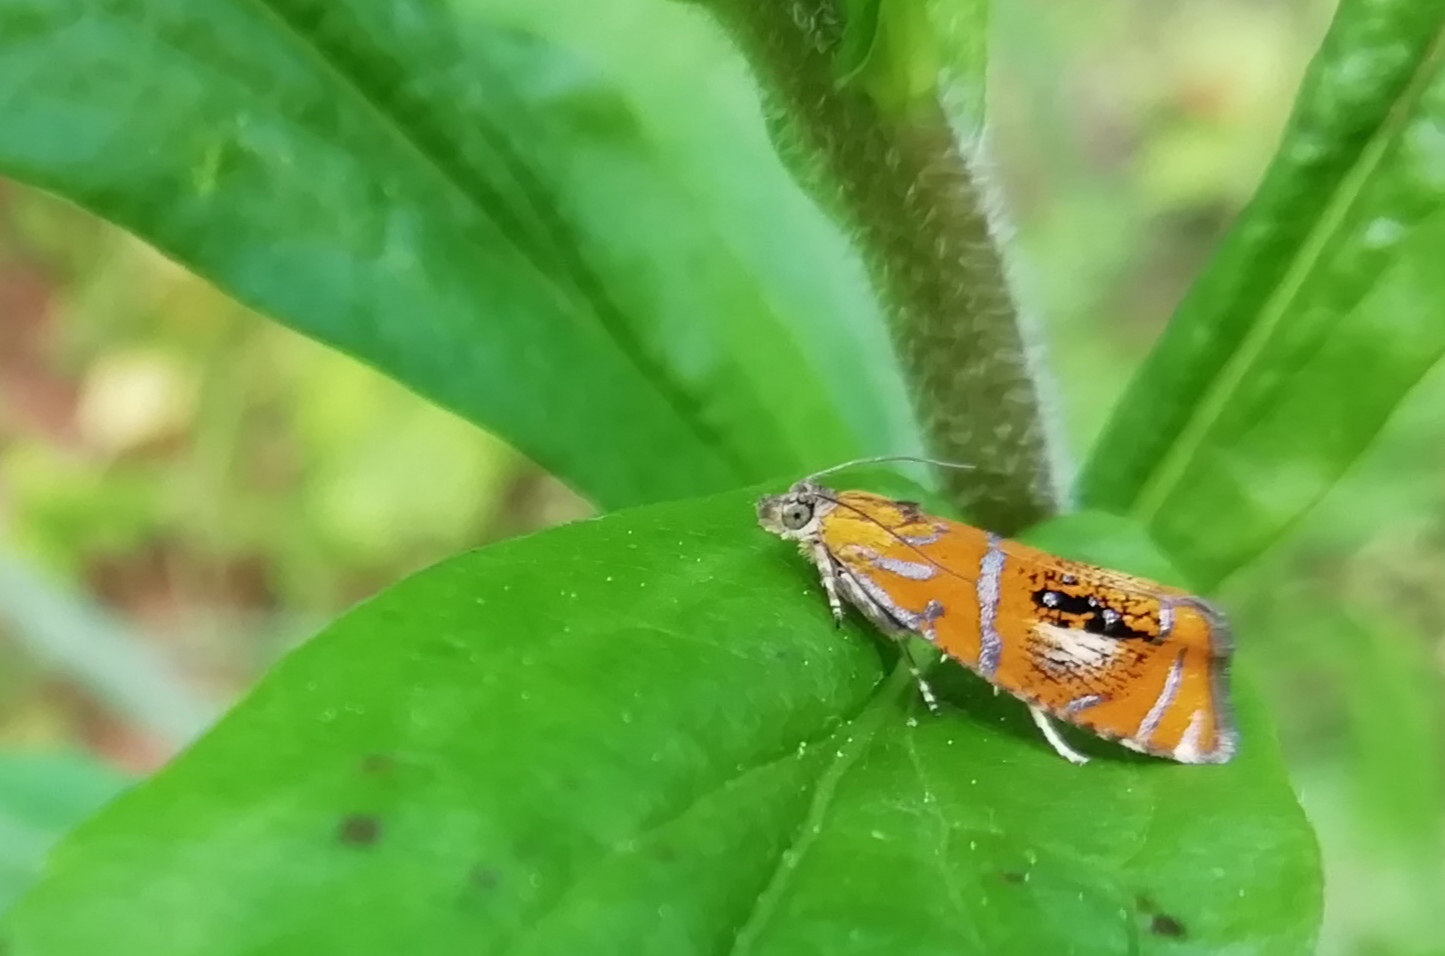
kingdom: Animalia
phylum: Arthropoda
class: Insecta
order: Lepidoptera
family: Tortricidae
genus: Olethreutes
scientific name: Olethreutes arcuella
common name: Arched marble
